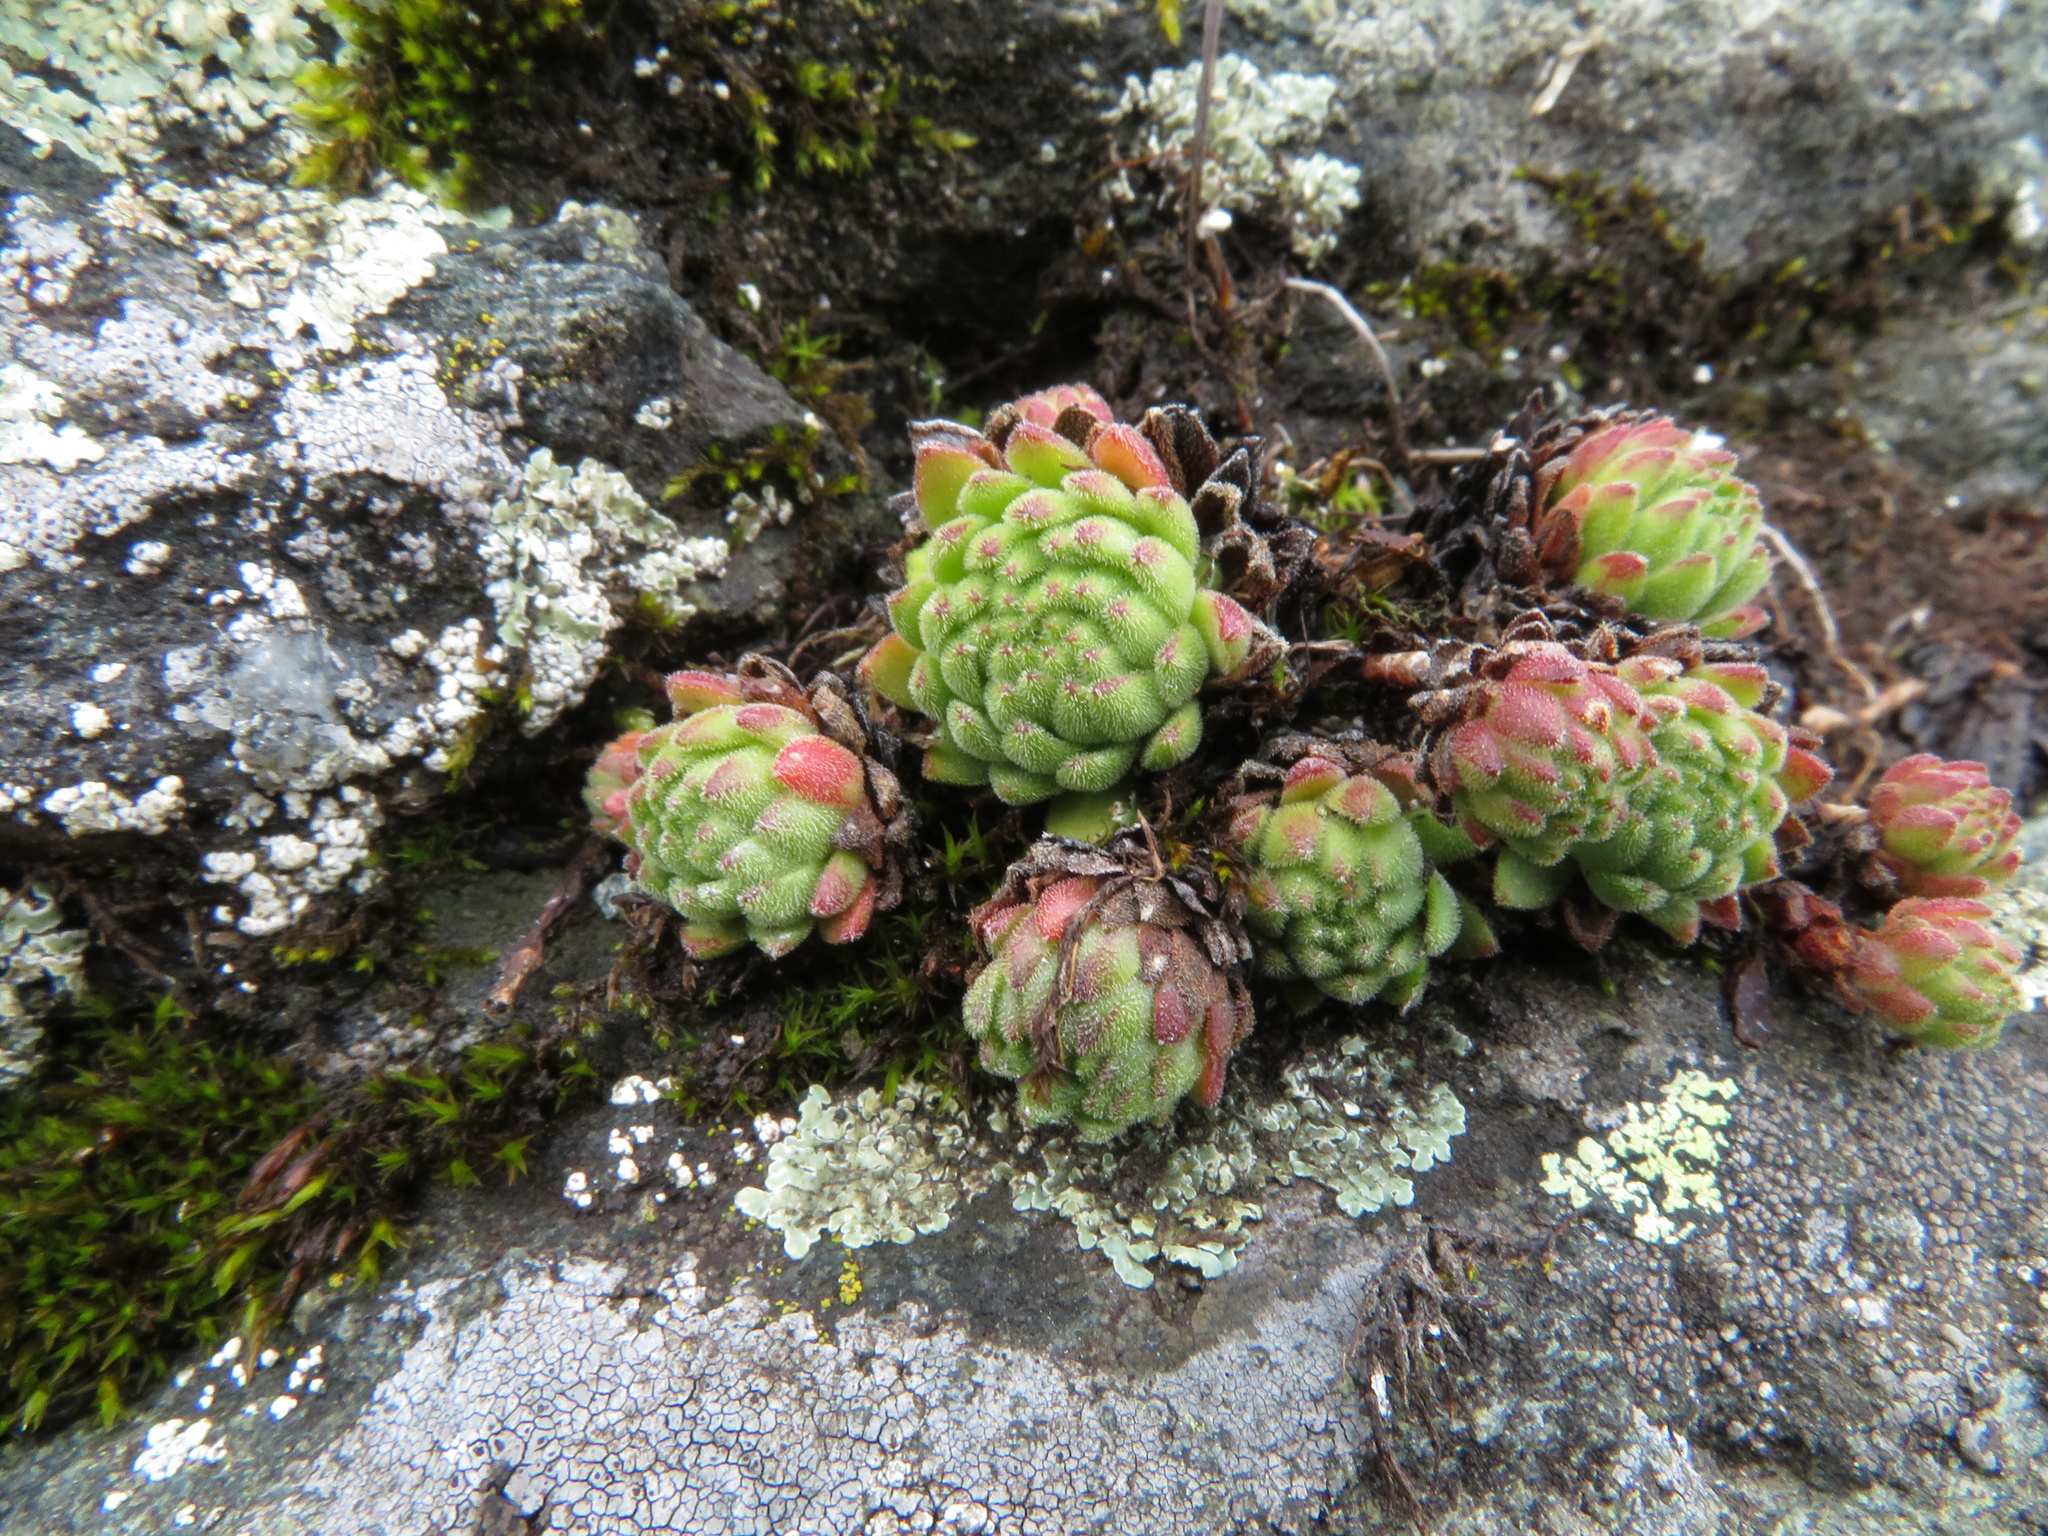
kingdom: Plantae
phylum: Tracheophyta
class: Magnoliopsida
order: Saxifragales
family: Crassulaceae
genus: Sempervivum
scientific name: Sempervivum montanum
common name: Mountain house-leek
